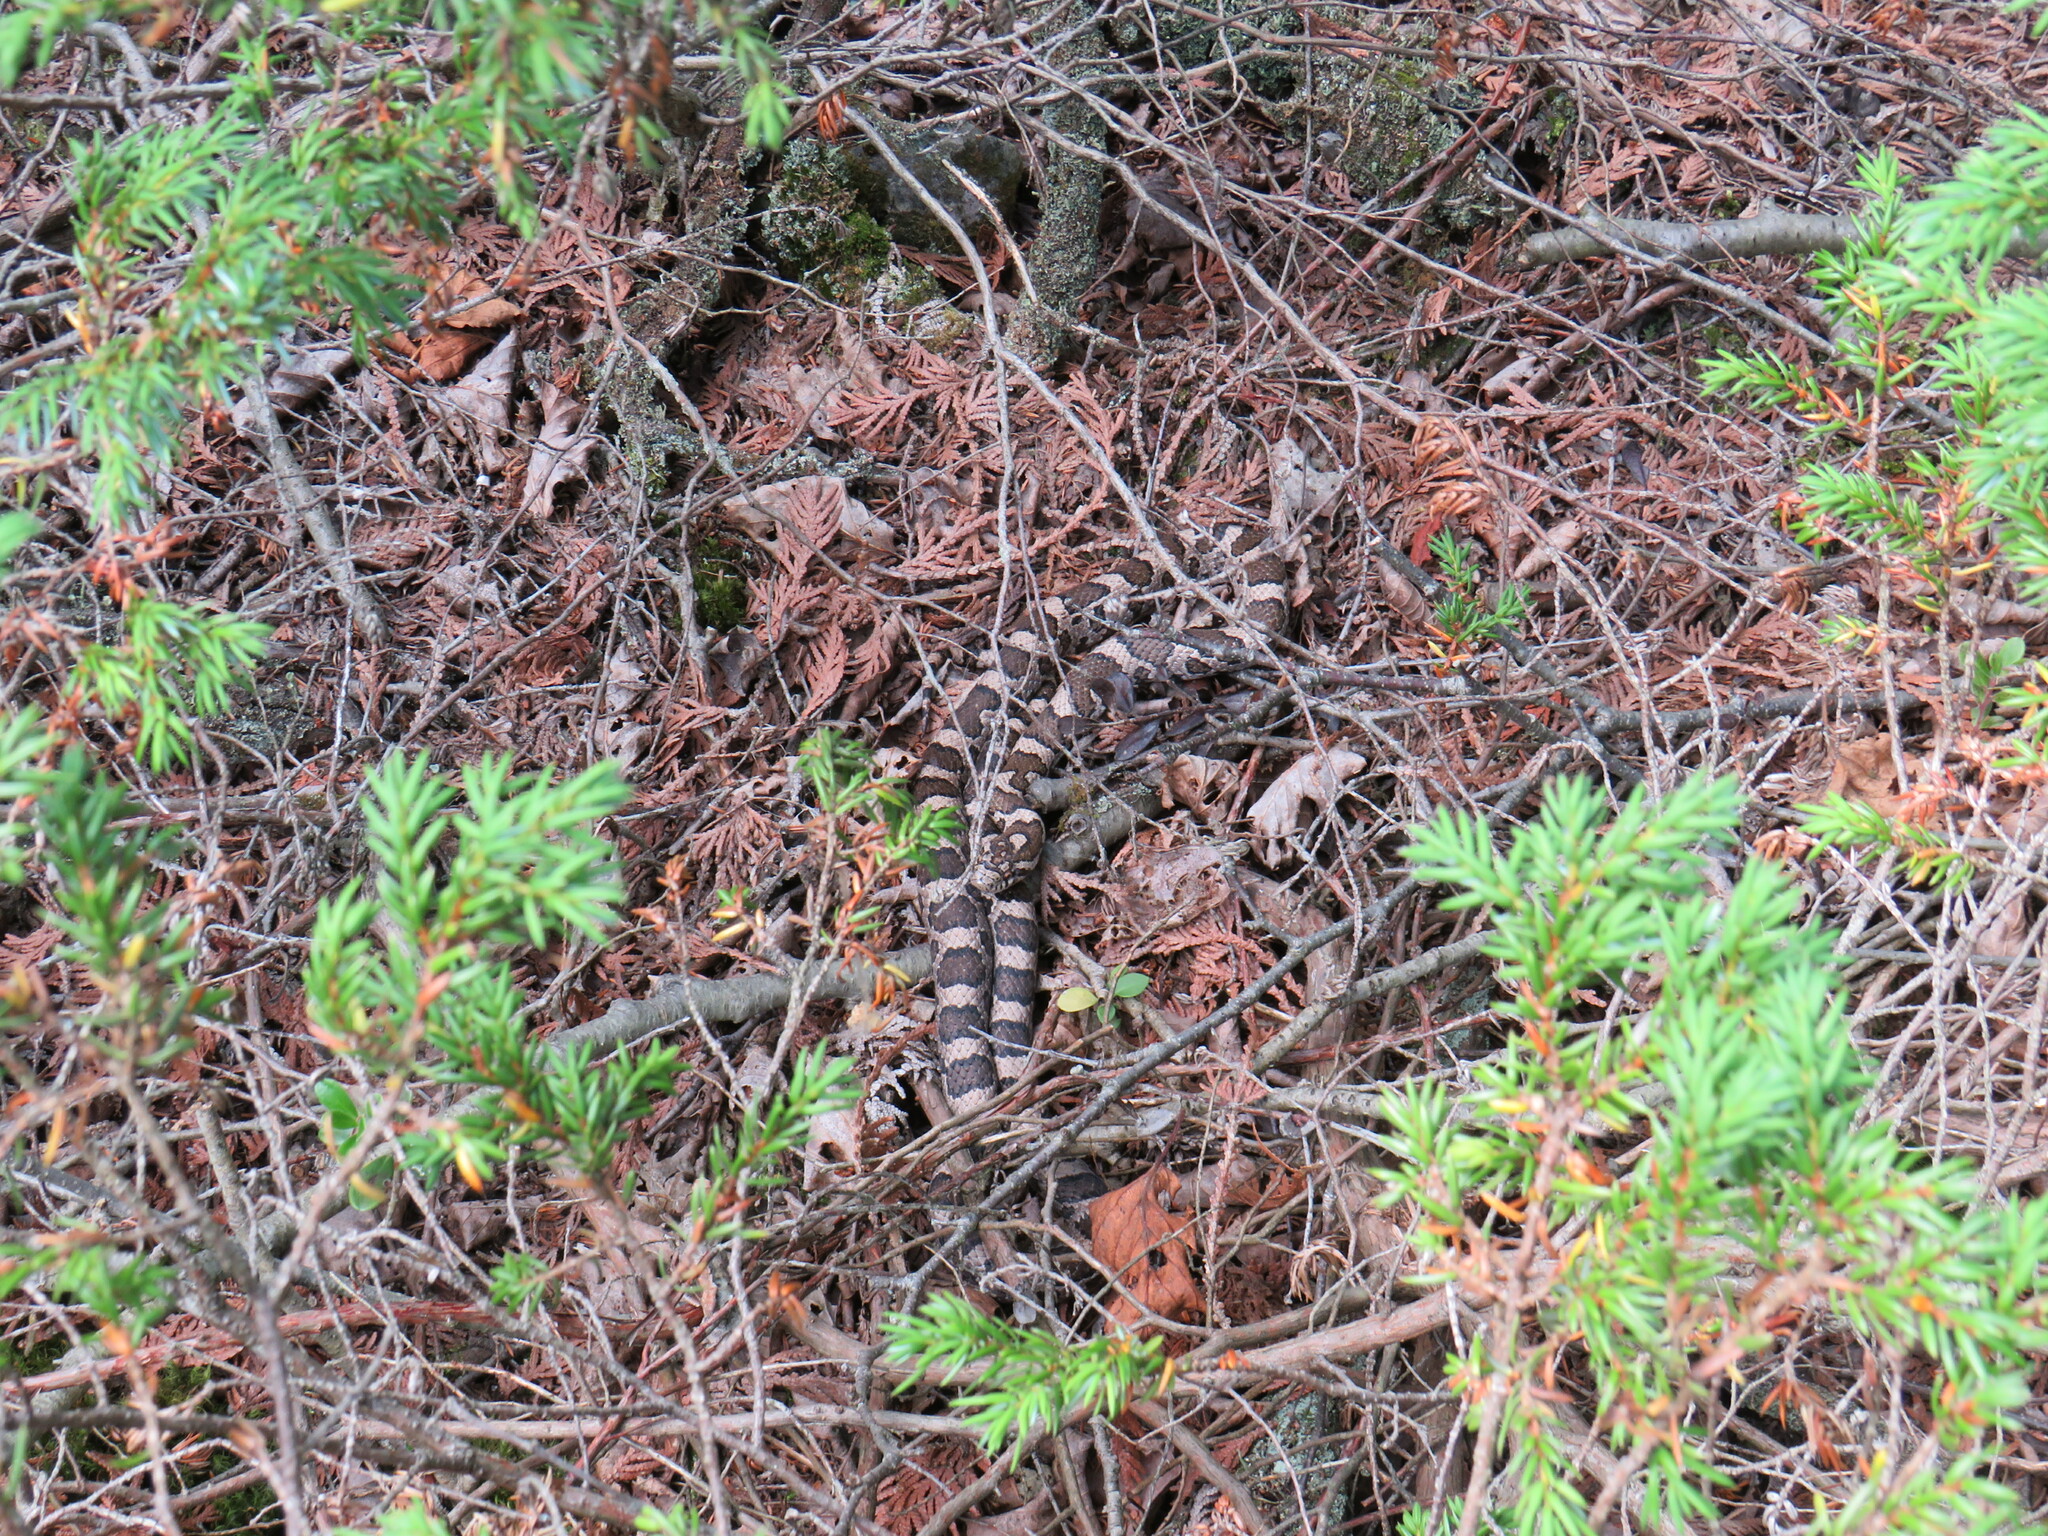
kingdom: Animalia
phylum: Chordata
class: Squamata
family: Colubridae
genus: Lampropeltis
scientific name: Lampropeltis triangulum
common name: Eastern milksnake
